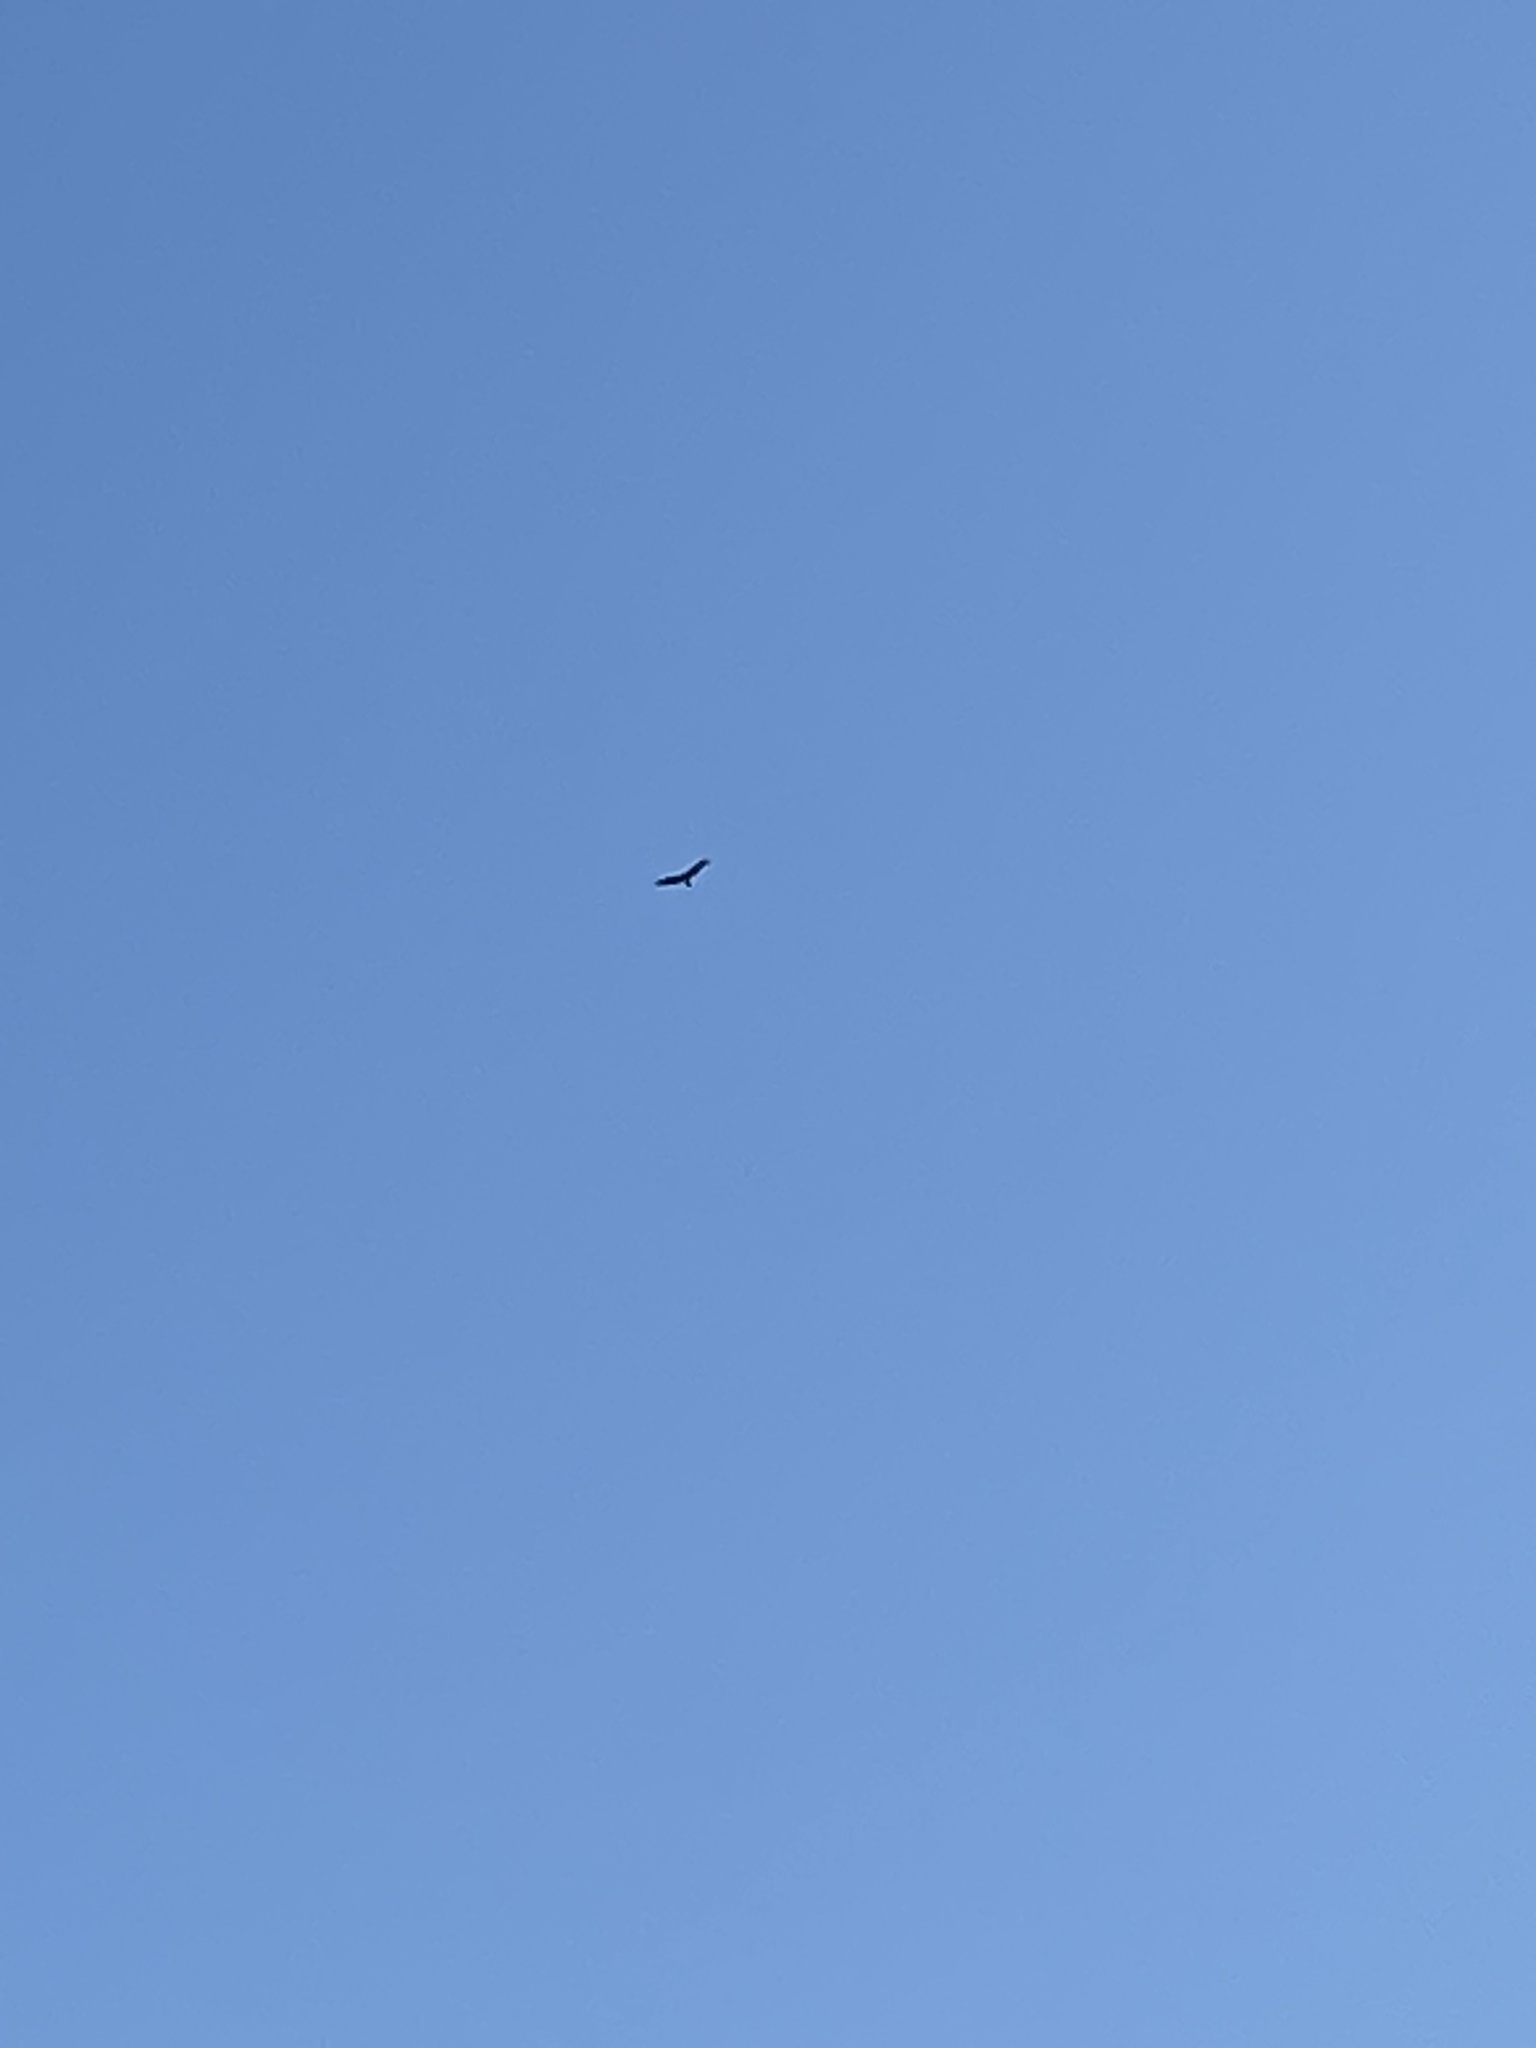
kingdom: Animalia
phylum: Chordata
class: Aves
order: Accipitriformes
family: Cathartidae
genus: Cathartes
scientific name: Cathartes aura
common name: Turkey vulture
